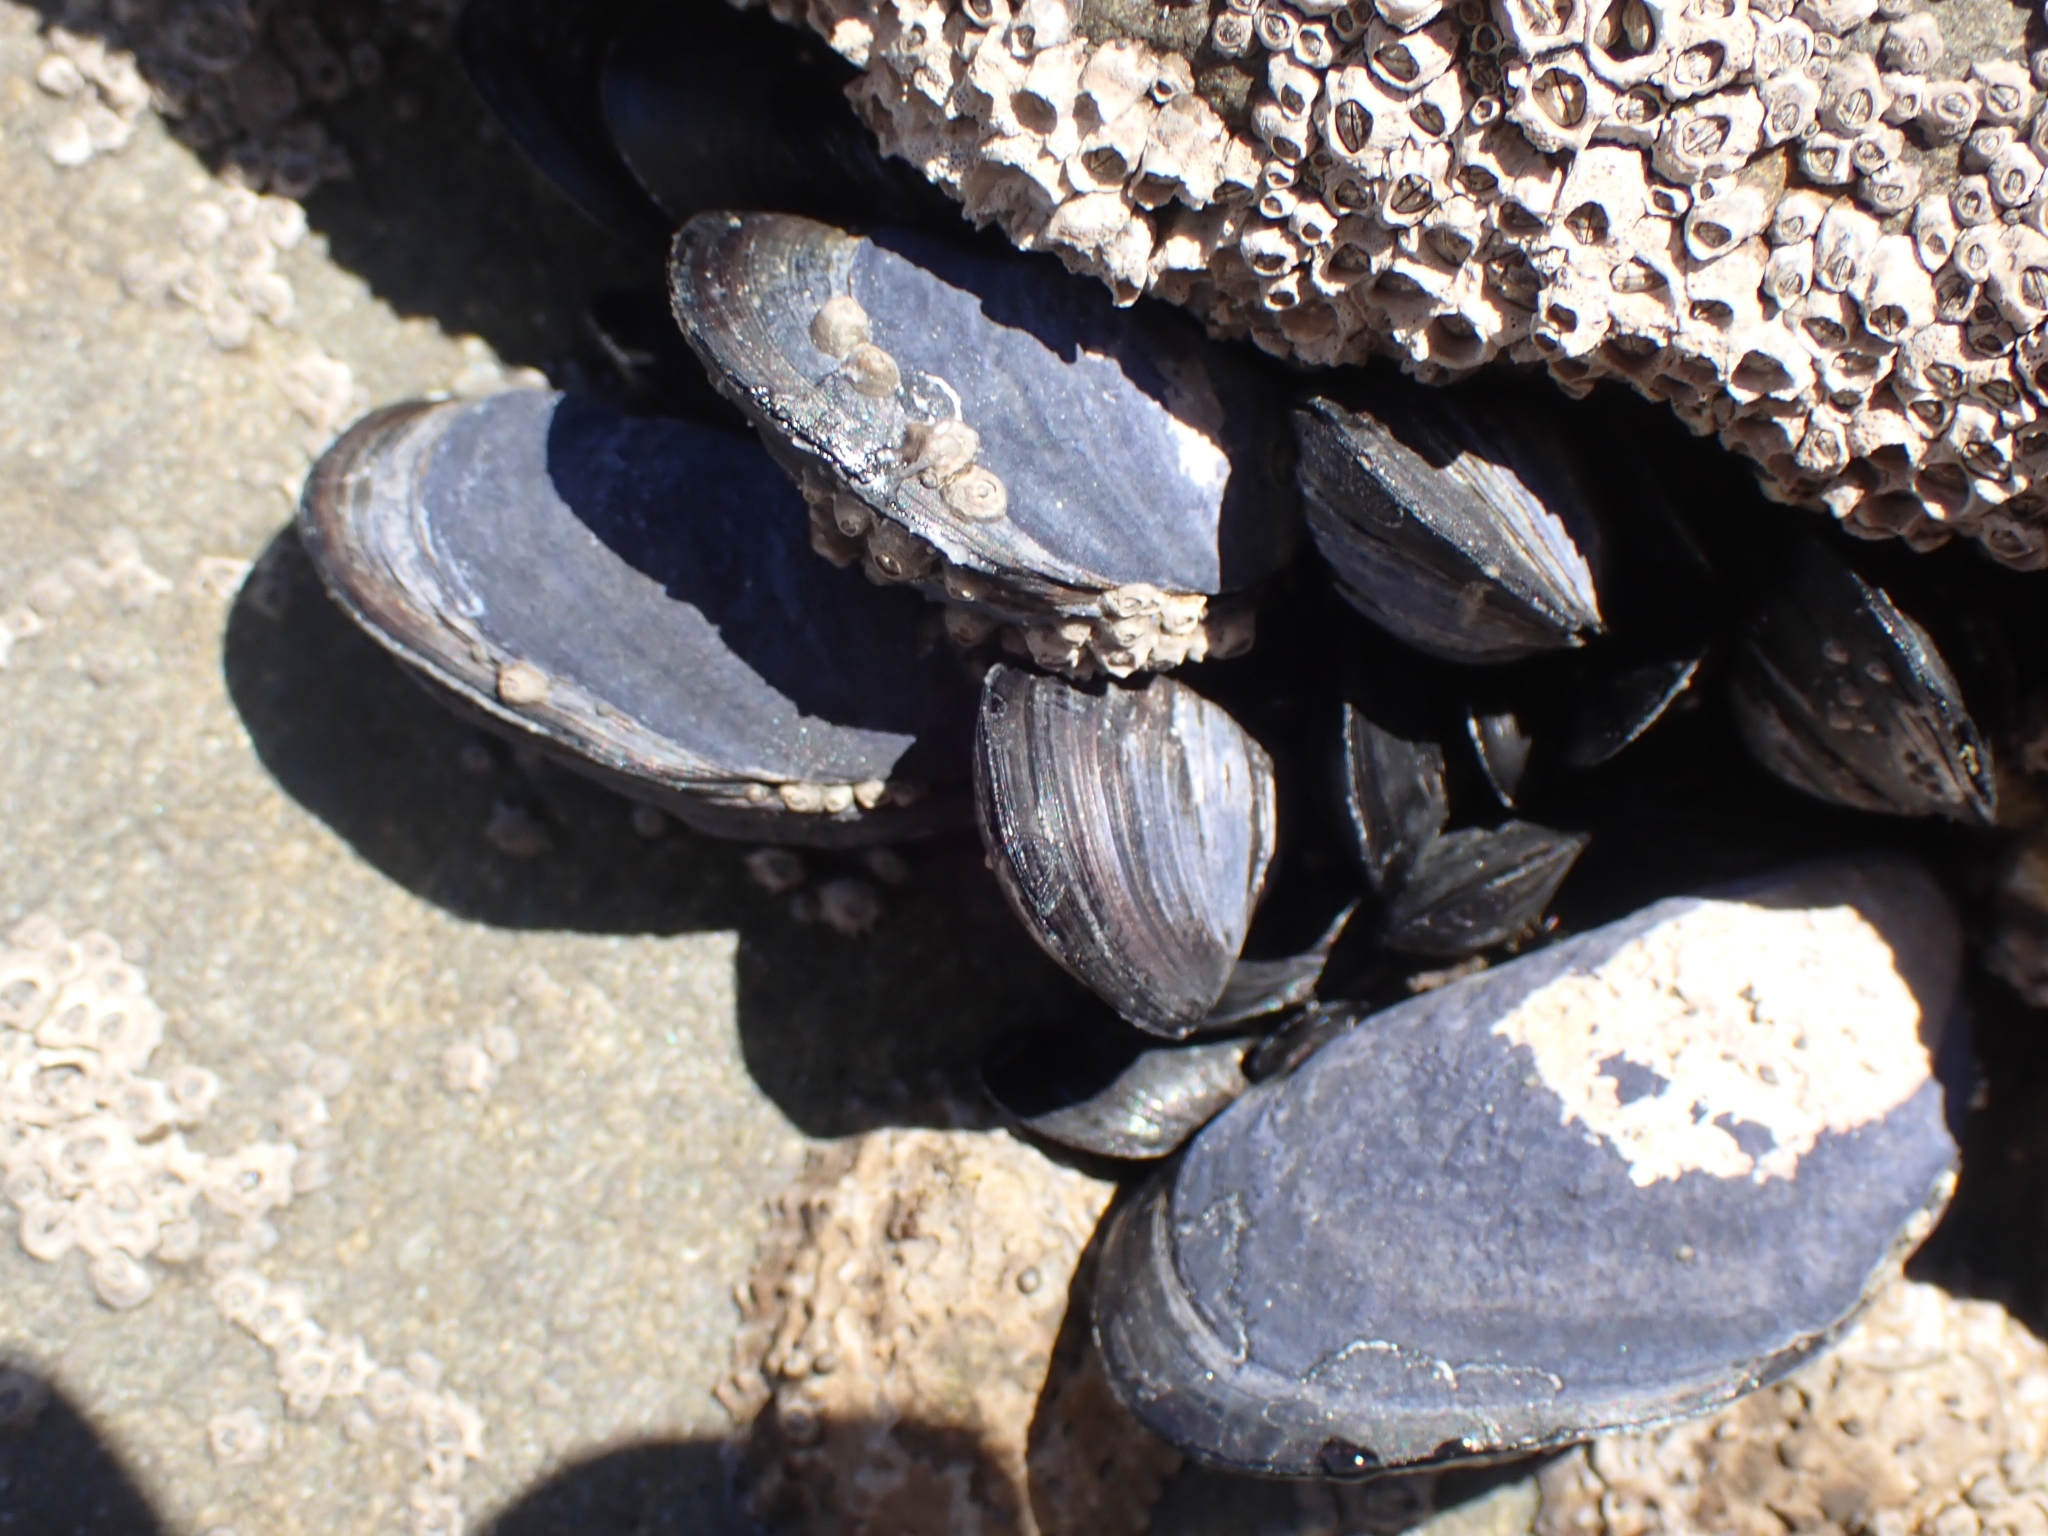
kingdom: Animalia
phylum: Mollusca
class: Bivalvia
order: Mytilida
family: Mytilidae
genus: Mytilus
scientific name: Mytilus planulatus
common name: Australian mussel
